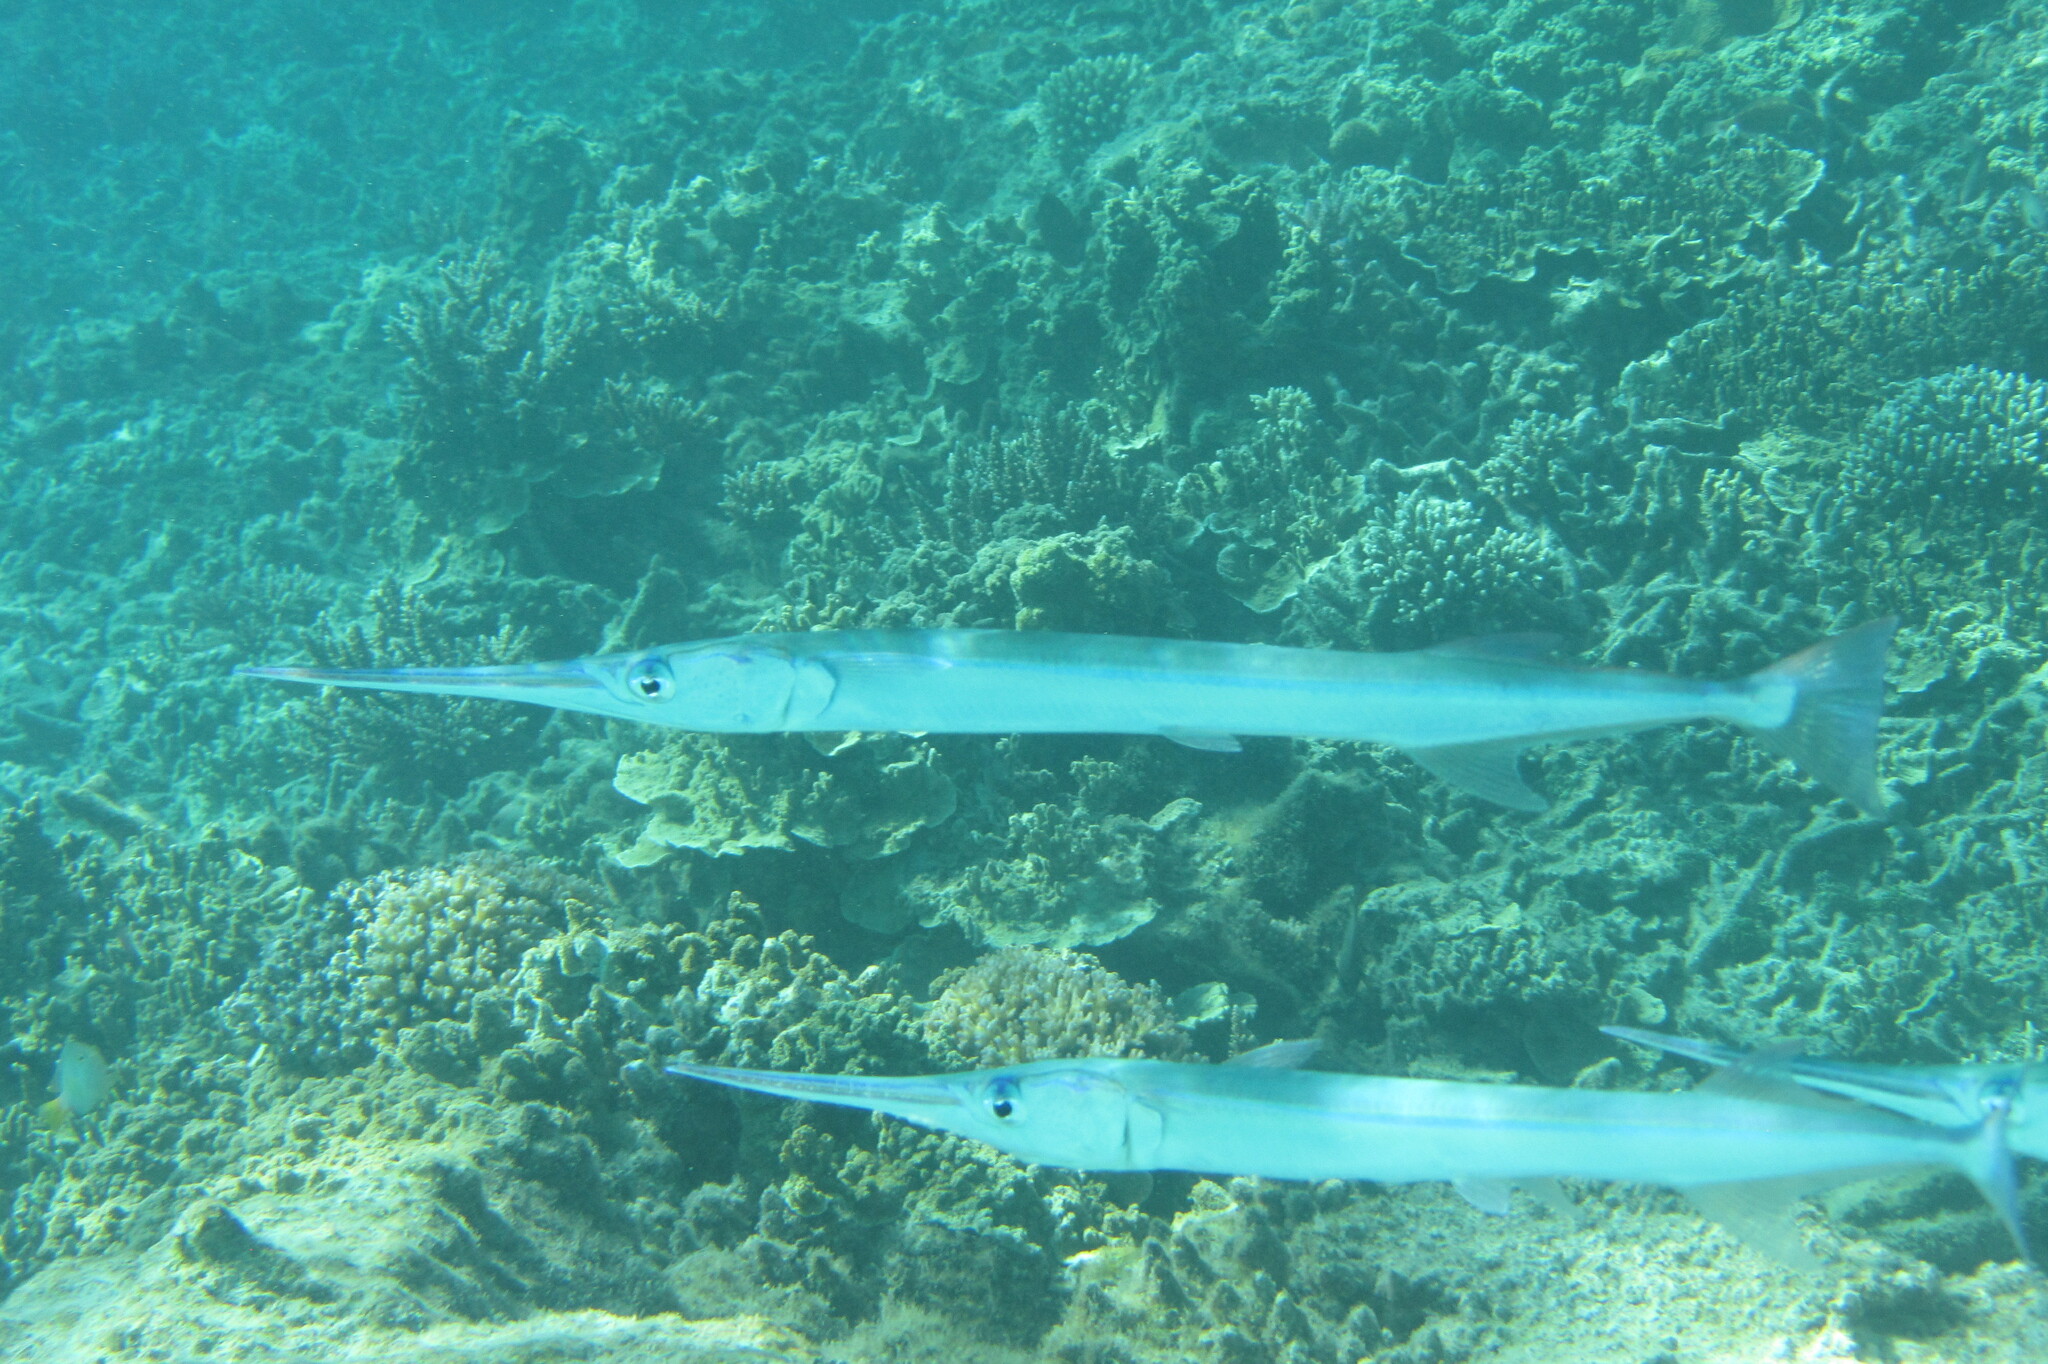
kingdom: Animalia
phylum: Chordata
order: Beloniformes
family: Belonidae
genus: Tylosurus
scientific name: Tylosurus crocodilus
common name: Houndfish
